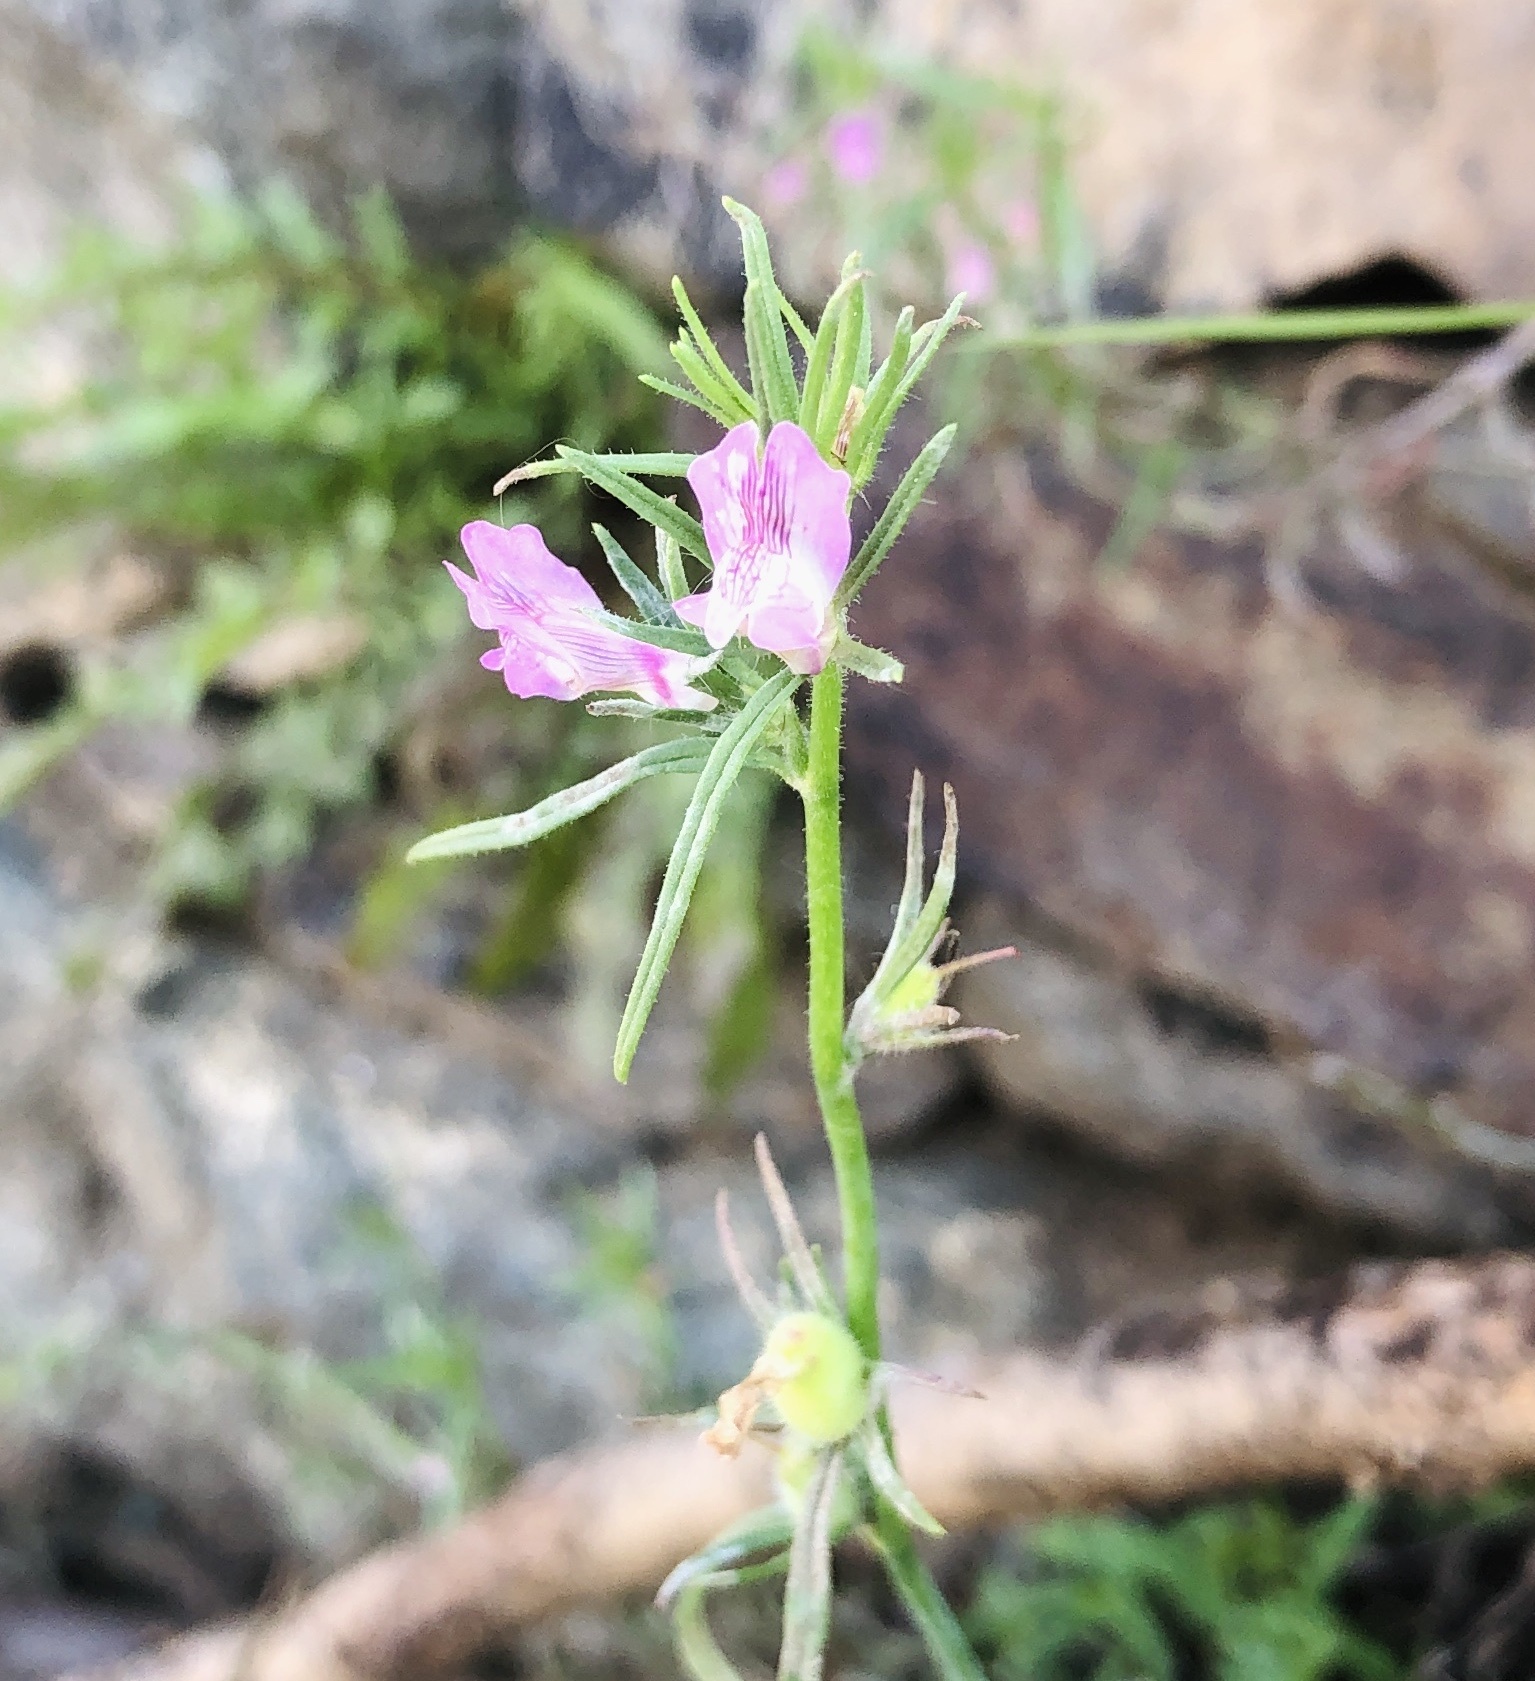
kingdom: Plantae
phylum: Tracheophyta
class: Magnoliopsida
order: Lamiales
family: Plantaginaceae
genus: Misopates
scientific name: Misopates orontium
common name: Weasel's-snout
